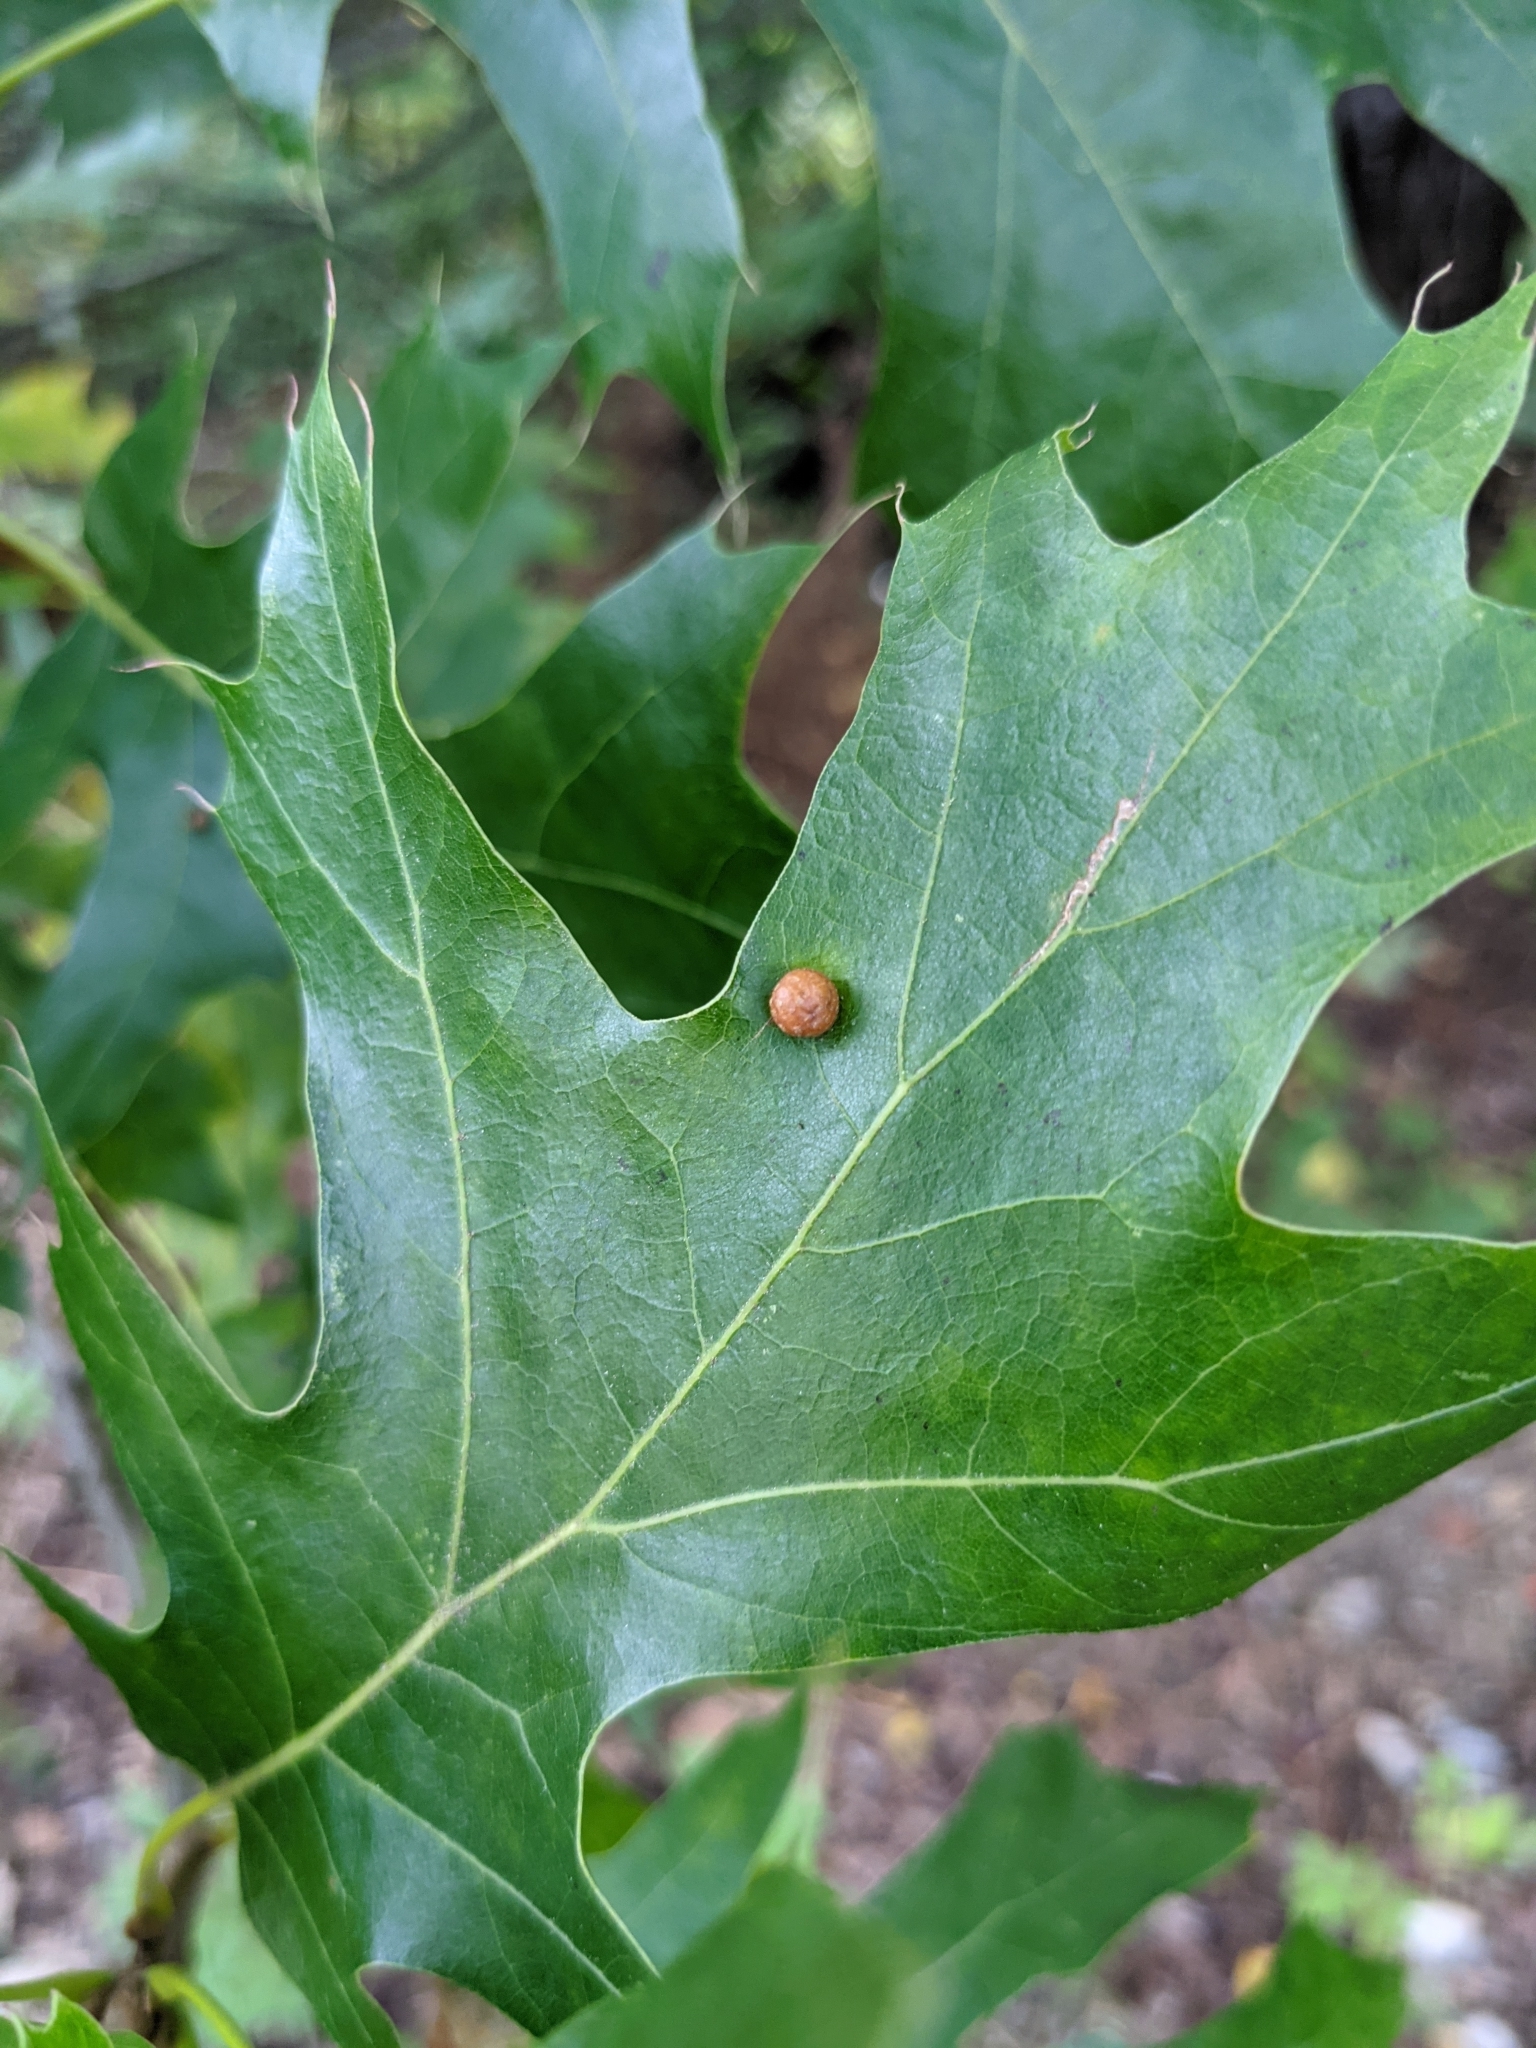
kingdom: Animalia
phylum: Arthropoda
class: Insecta
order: Diptera
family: Cecidomyiidae
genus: Polystepha
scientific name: Polystepha pilulae
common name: Oak leaf gall midge
